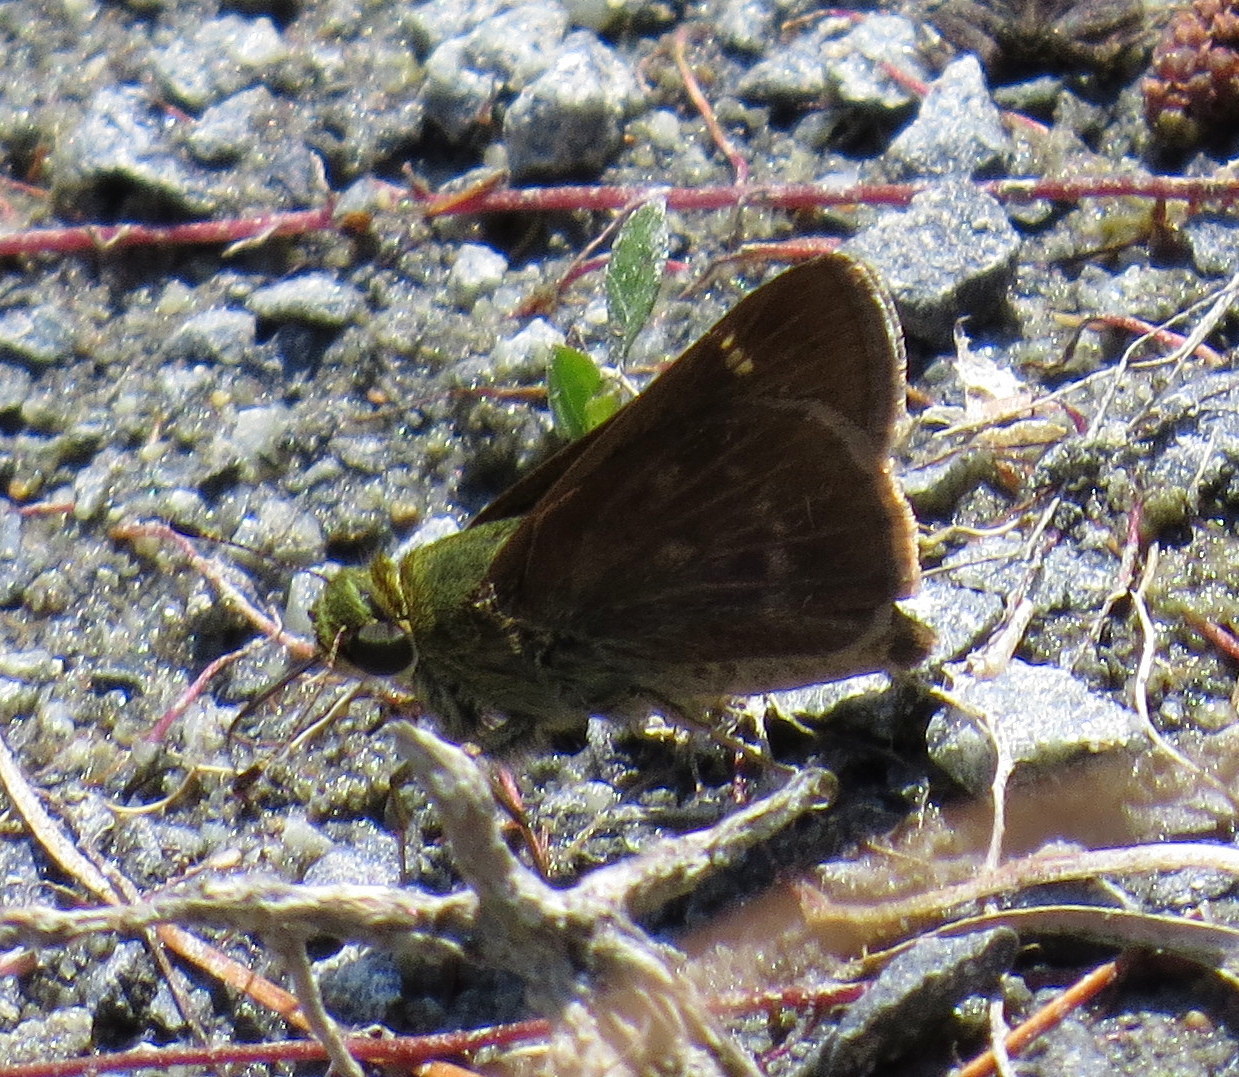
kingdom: Animalia
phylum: Arthropoda
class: Insecta
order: Lepidoptera
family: Hesperiidae
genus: Vernia
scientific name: Vernia verna
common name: Little glassywing
